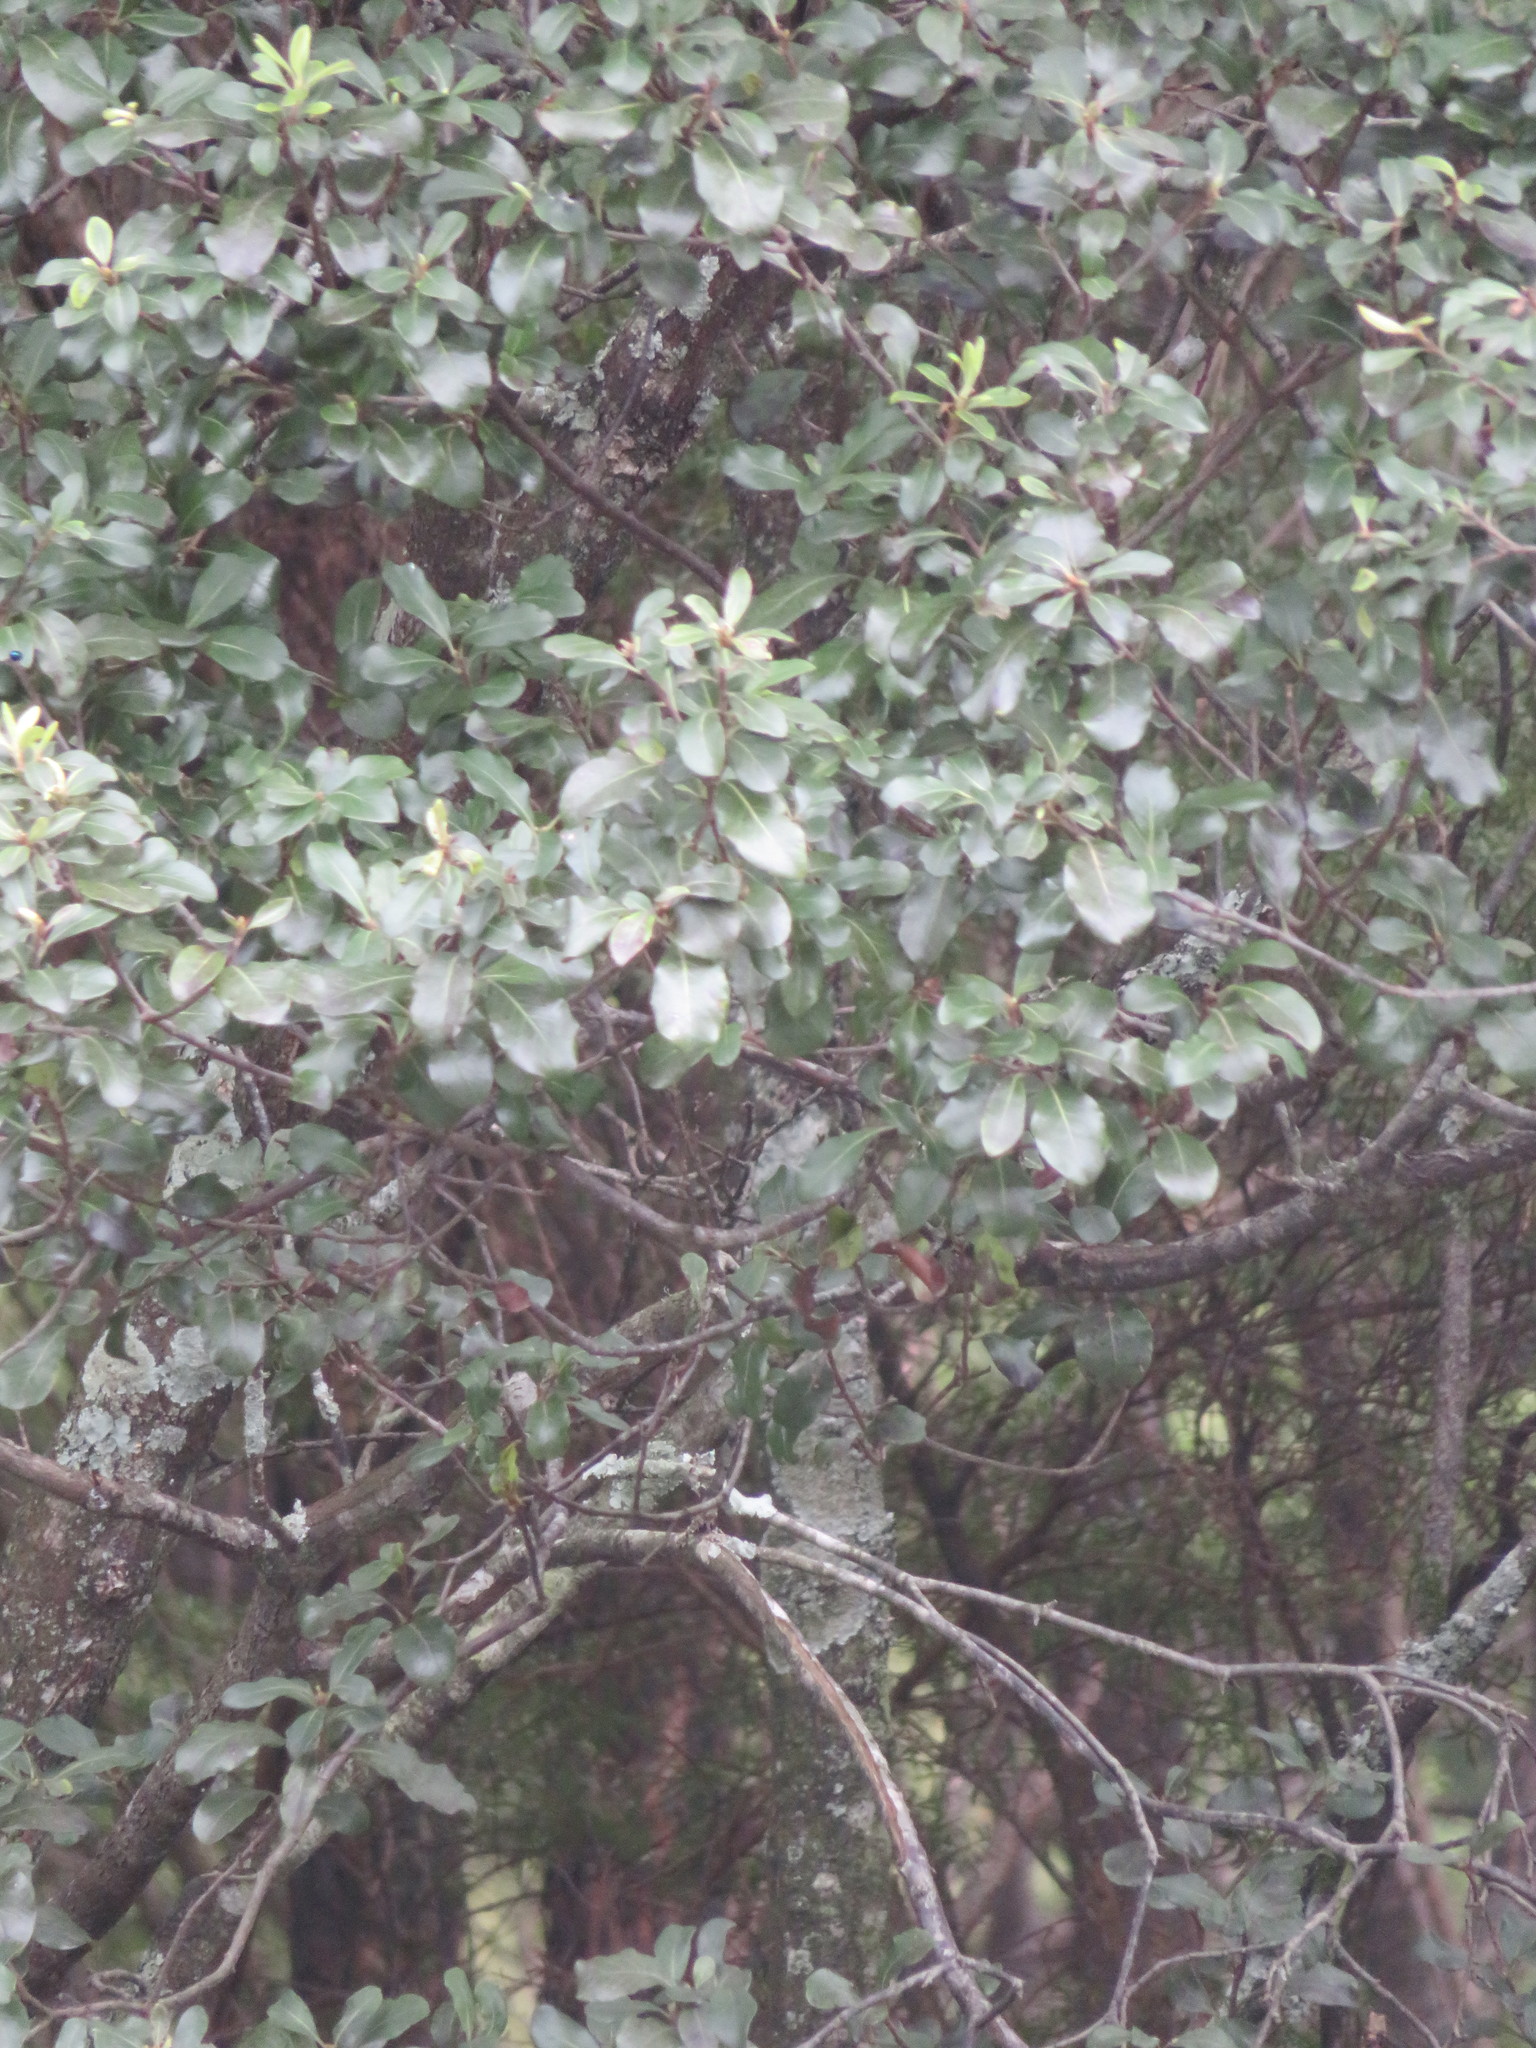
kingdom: Plantae
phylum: Tracheophyta
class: Magnoliopsida
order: Apiales
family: Pittosporaceae
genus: Pittosporum
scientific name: Pittosporum tenuifolium
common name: Kohuhu
